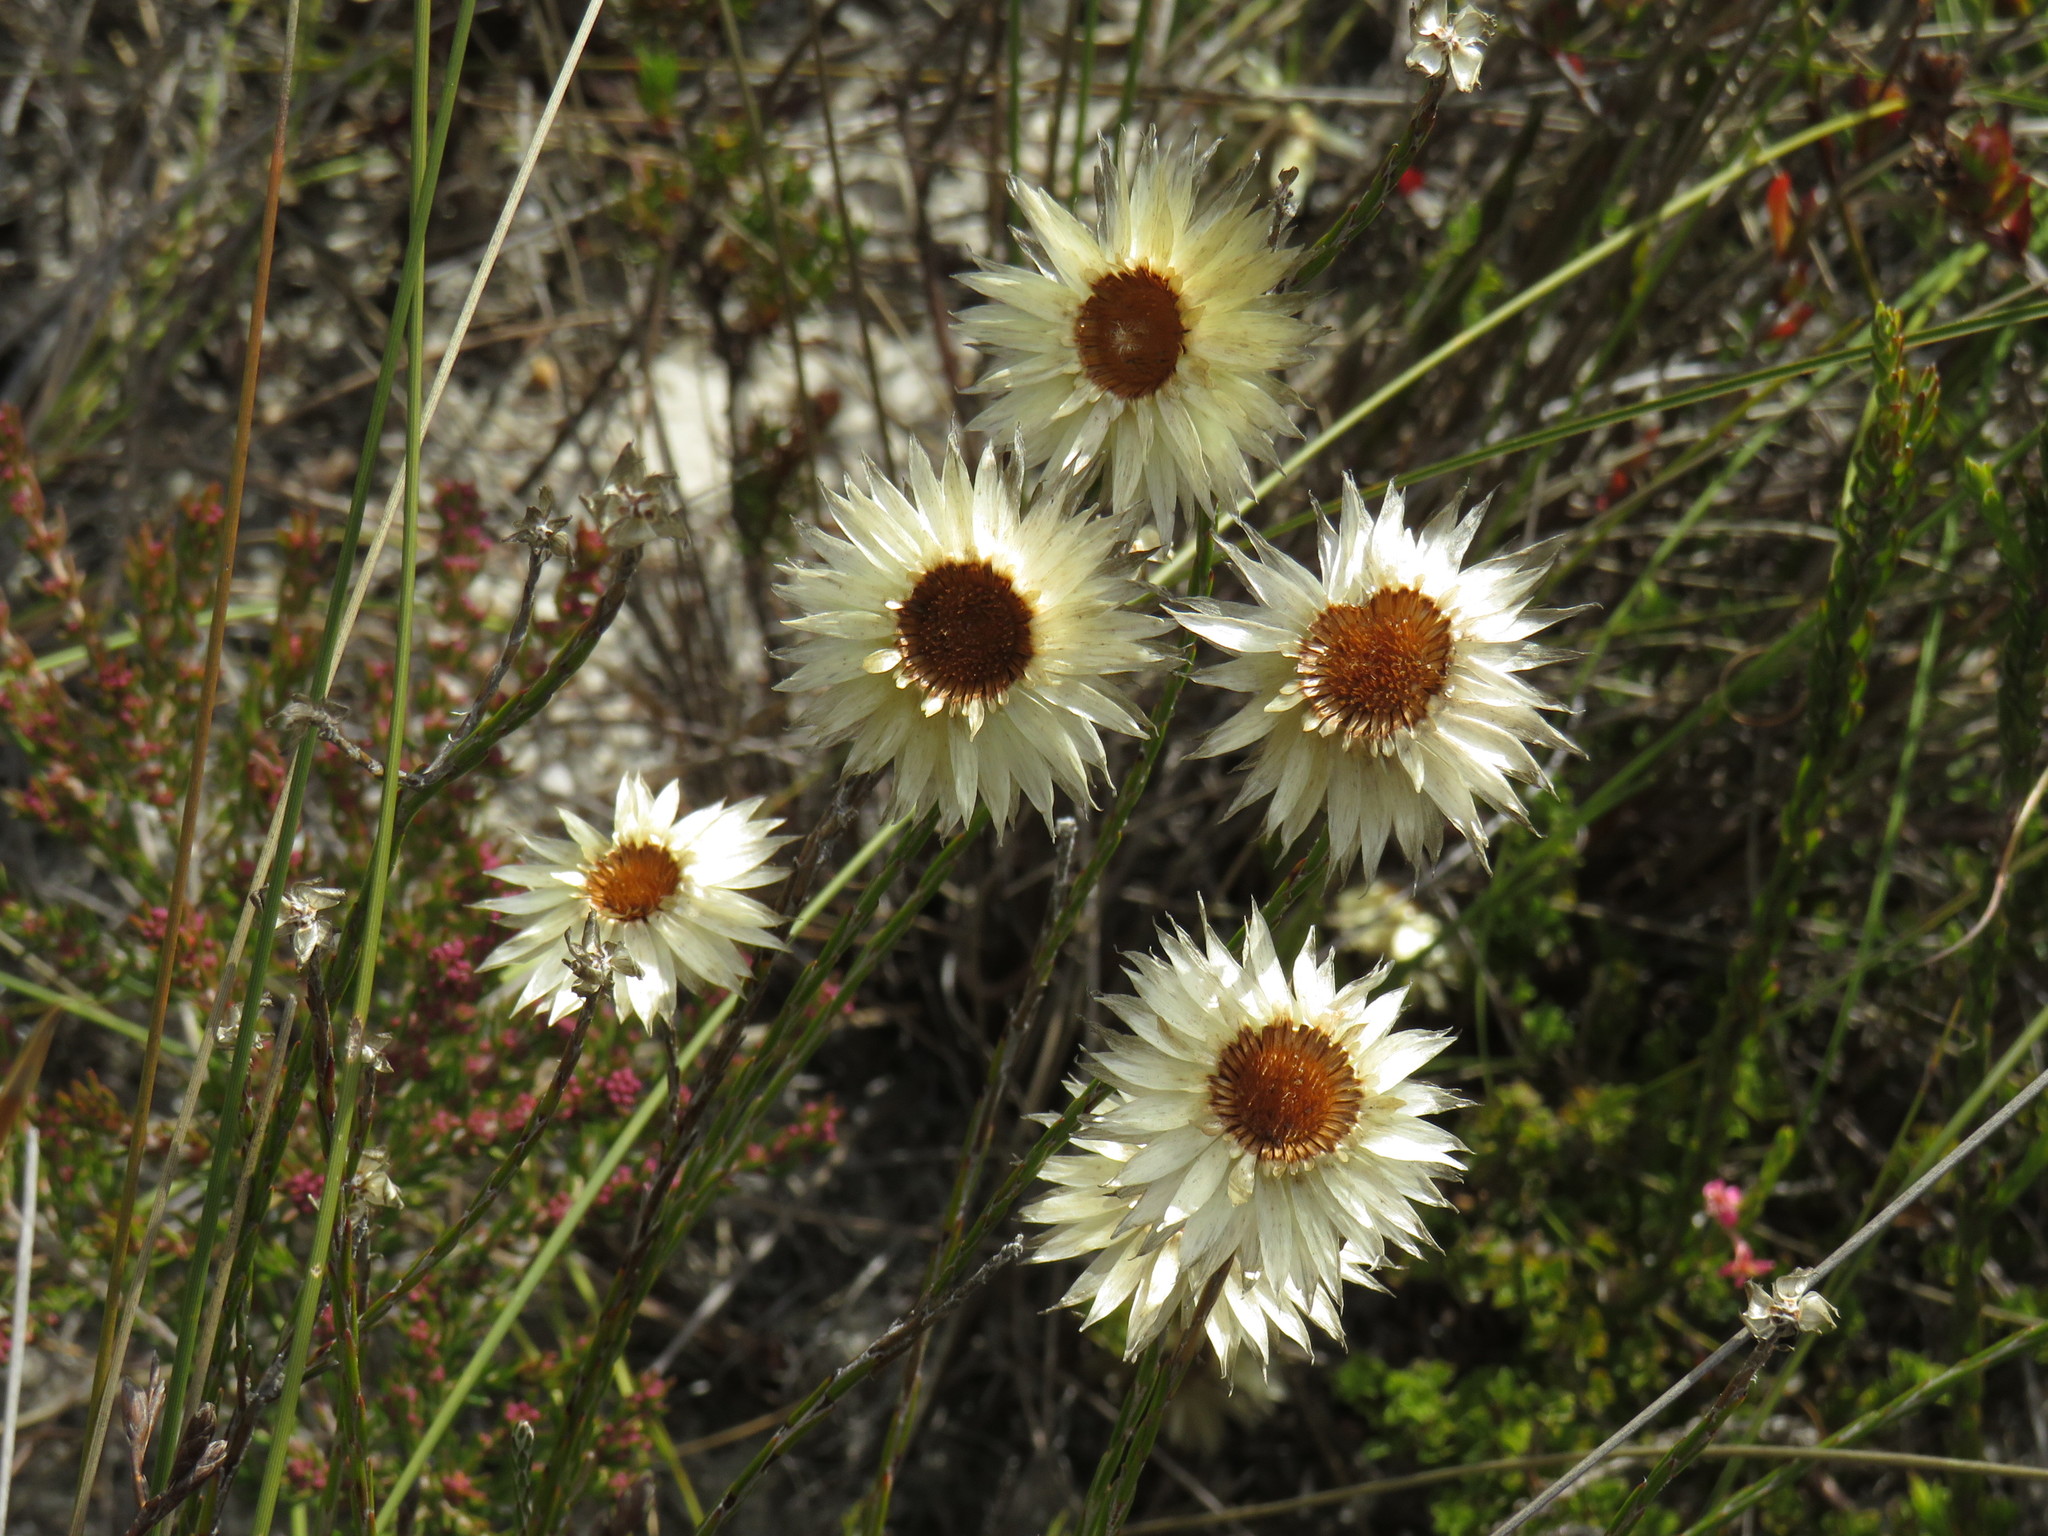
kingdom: Plantae
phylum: Tracheophyta
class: Magnoliopsida
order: Asterales
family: Asteraceae
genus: Edmondia
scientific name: Edmondia sesamoides
